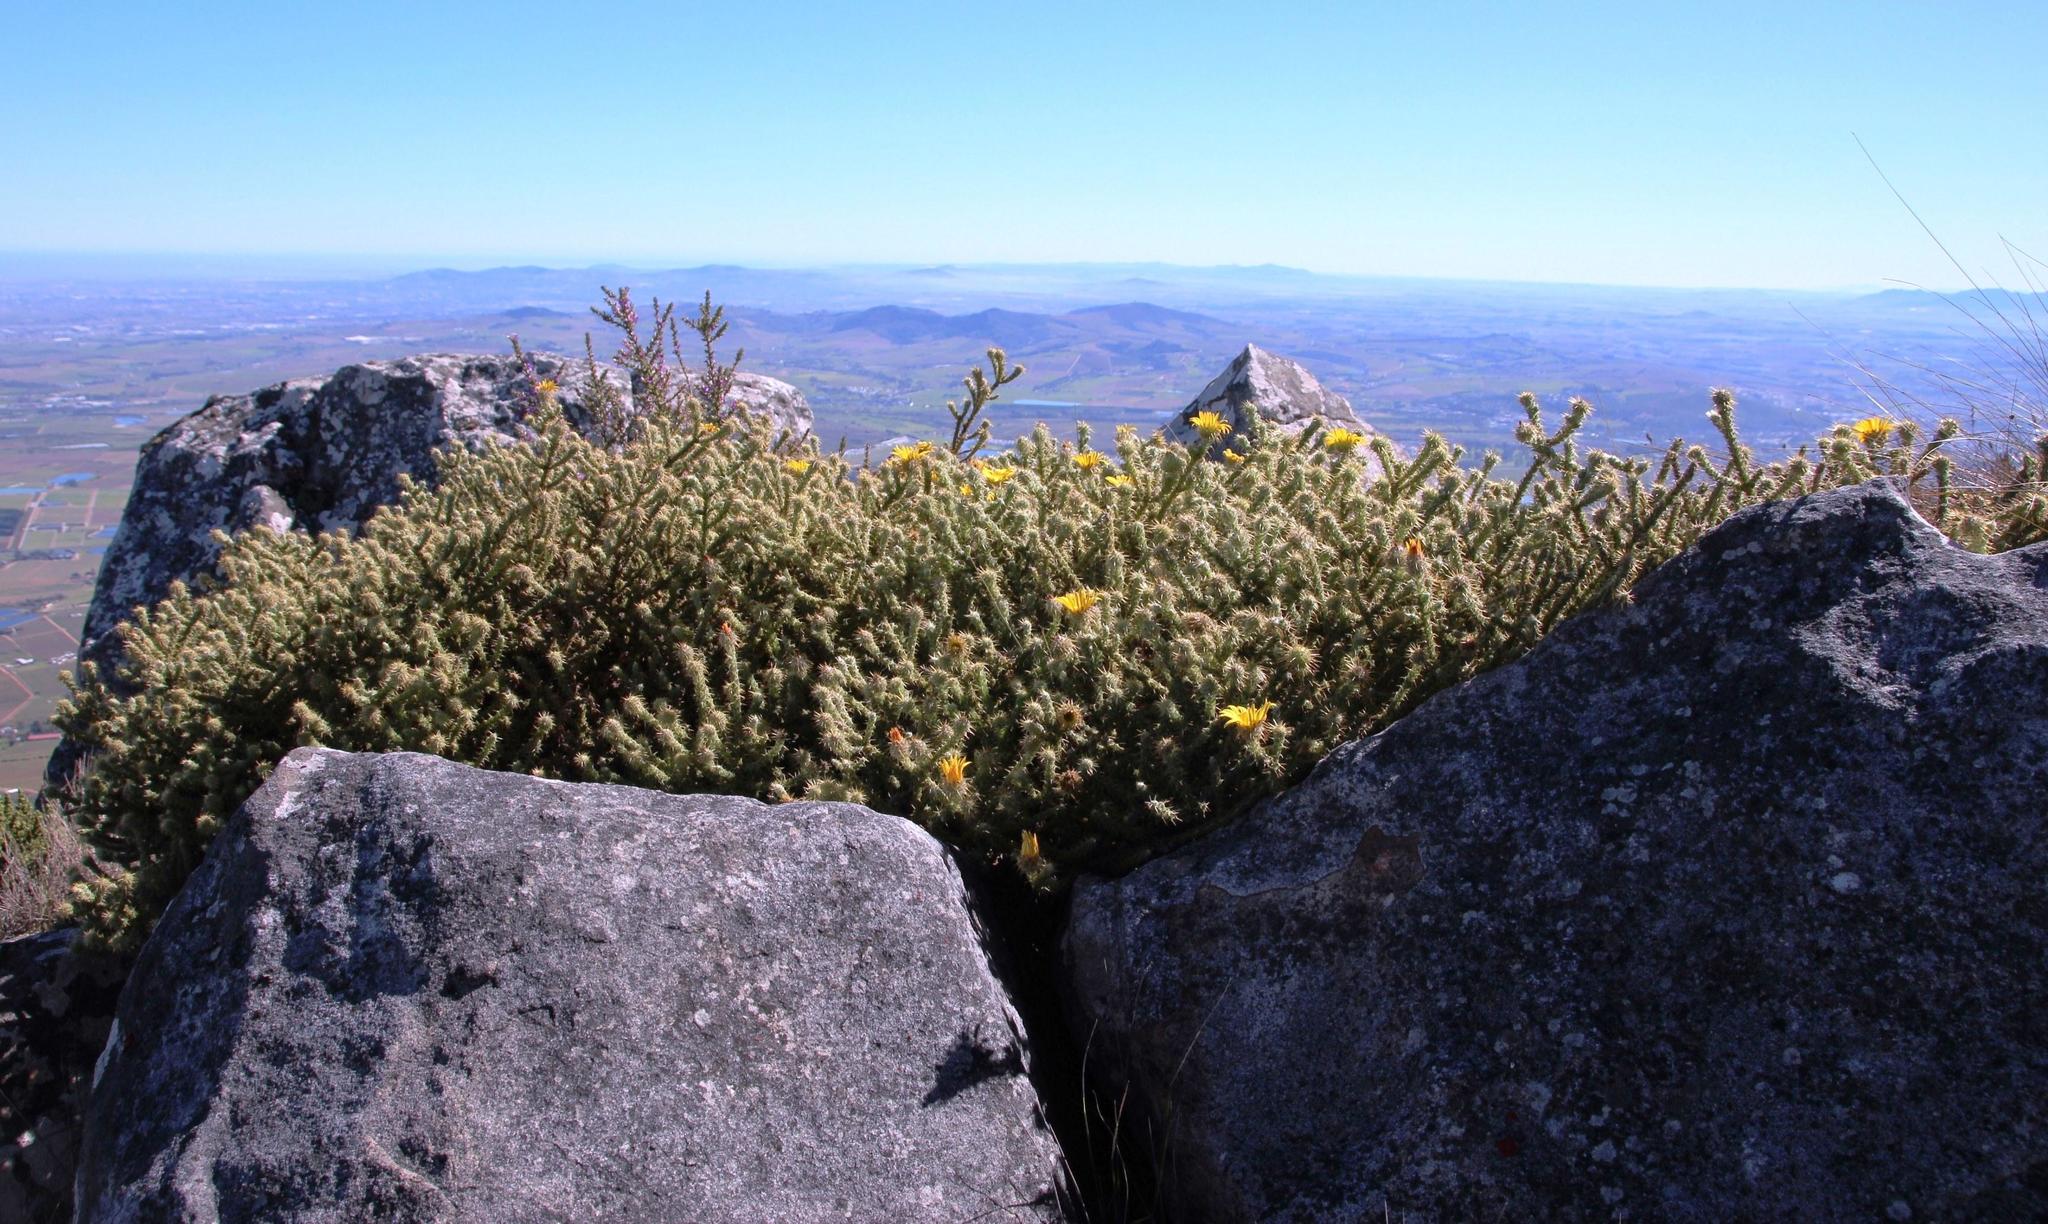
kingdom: Plantae
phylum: Tracheophyta
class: Magnoliopsida
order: Asterales
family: Asteraceae
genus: Cullumia
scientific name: Cullumia reticulata
